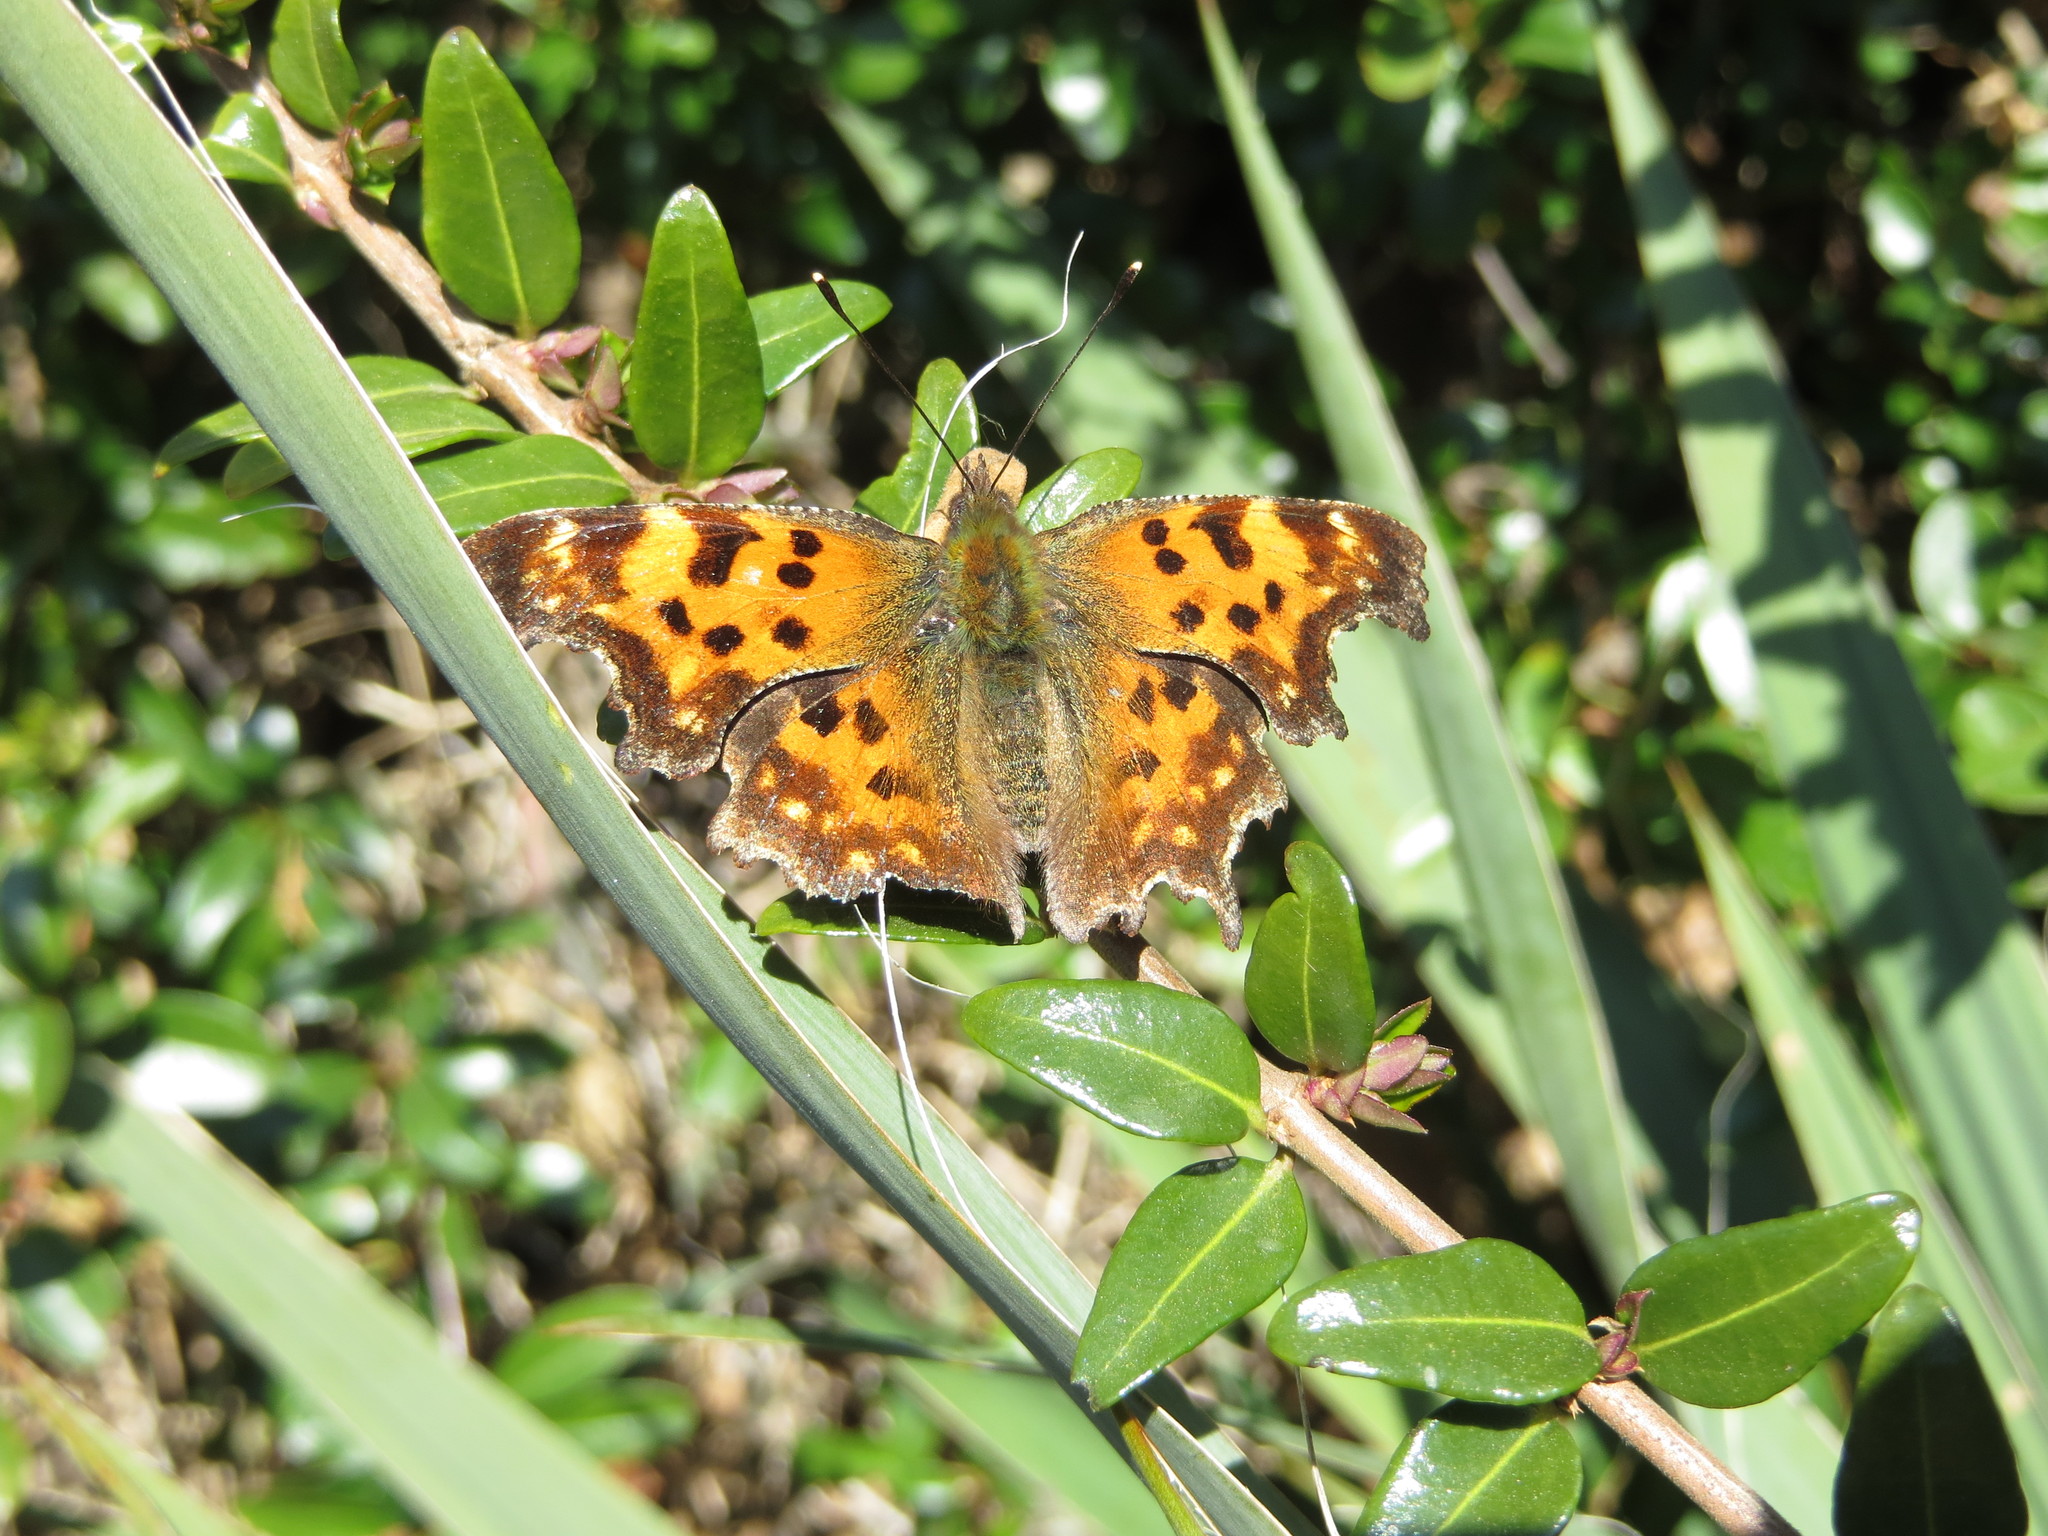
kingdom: Animalia
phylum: Arthropoda
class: Insecta
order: Lepidoptera
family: Nymphalidae
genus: Polygonia
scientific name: Polygonia c-album
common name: Comma
